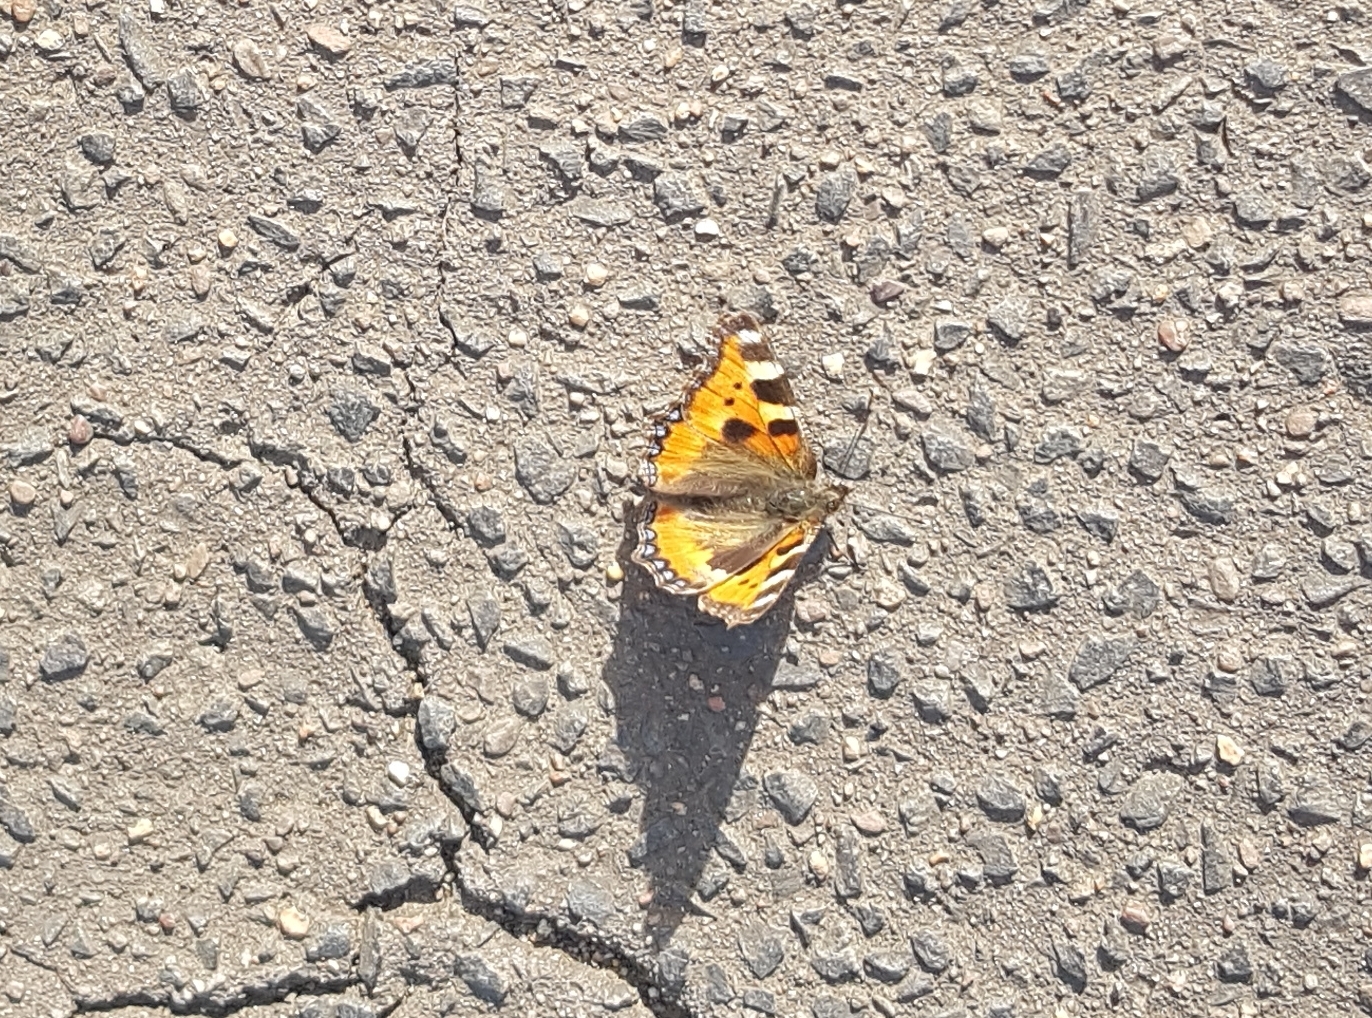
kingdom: Animalia
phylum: Arthropoda
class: Insecta
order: Lepidoptera
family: Nymphalidae
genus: Aglais
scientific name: Aglais urticae
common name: Small tortoiseshell
